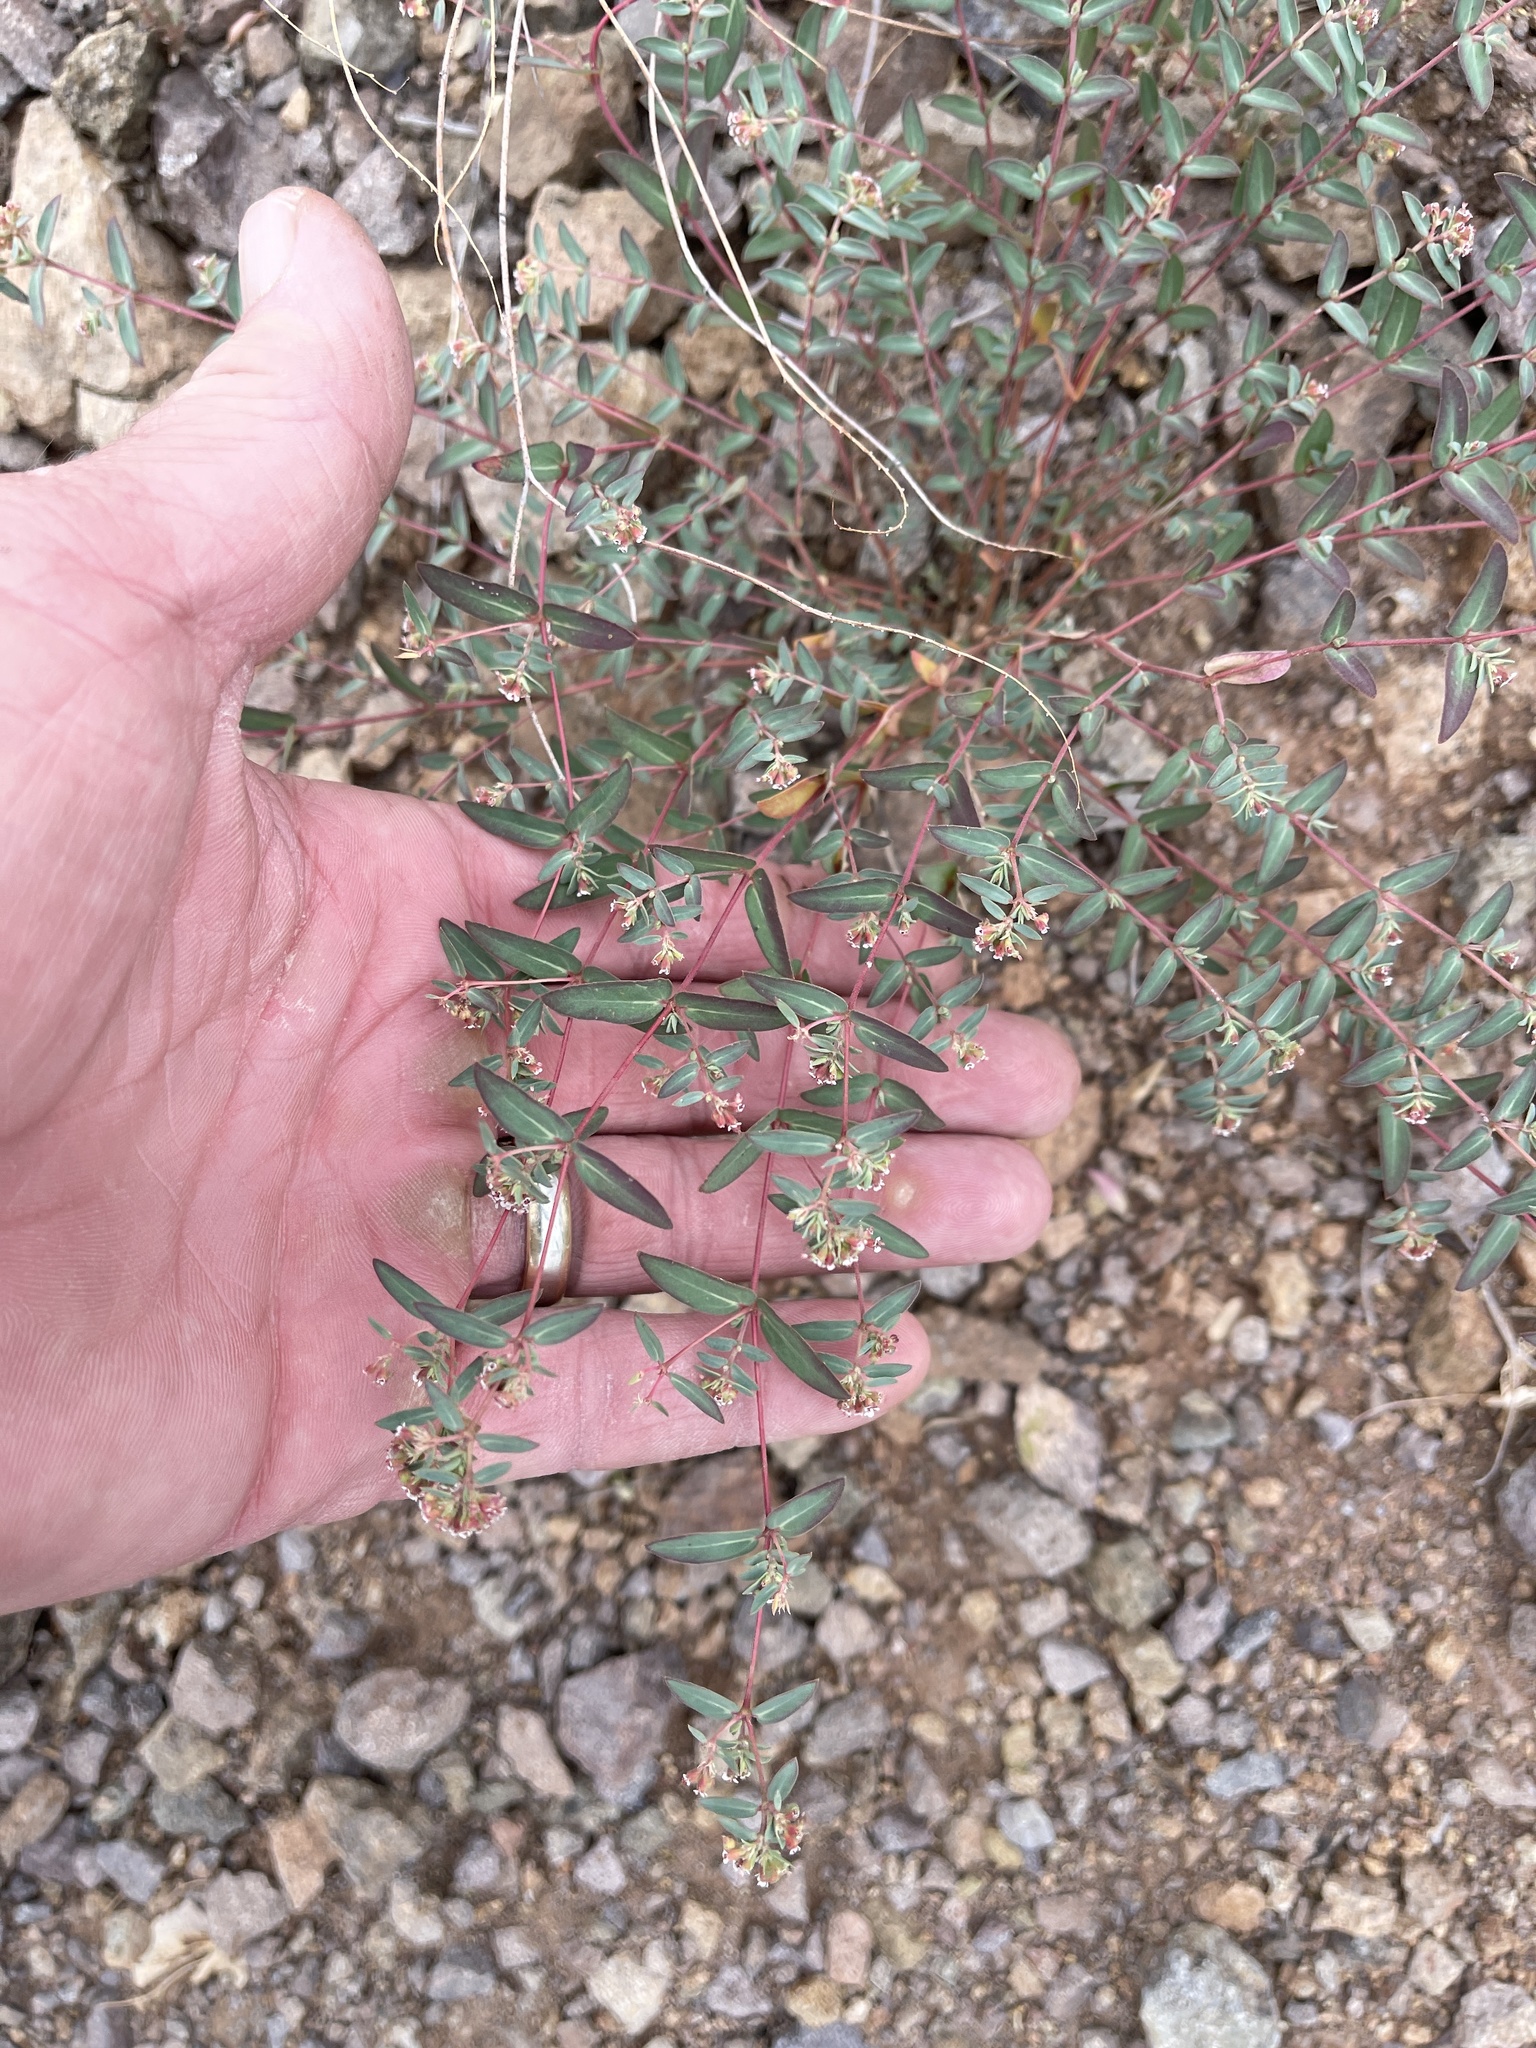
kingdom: Plantae
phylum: Tracheophyta
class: Magnoliopsida
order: Malpighiales
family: Euphorbiaceae
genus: Euphorbia
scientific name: Euphorbia capitellata
